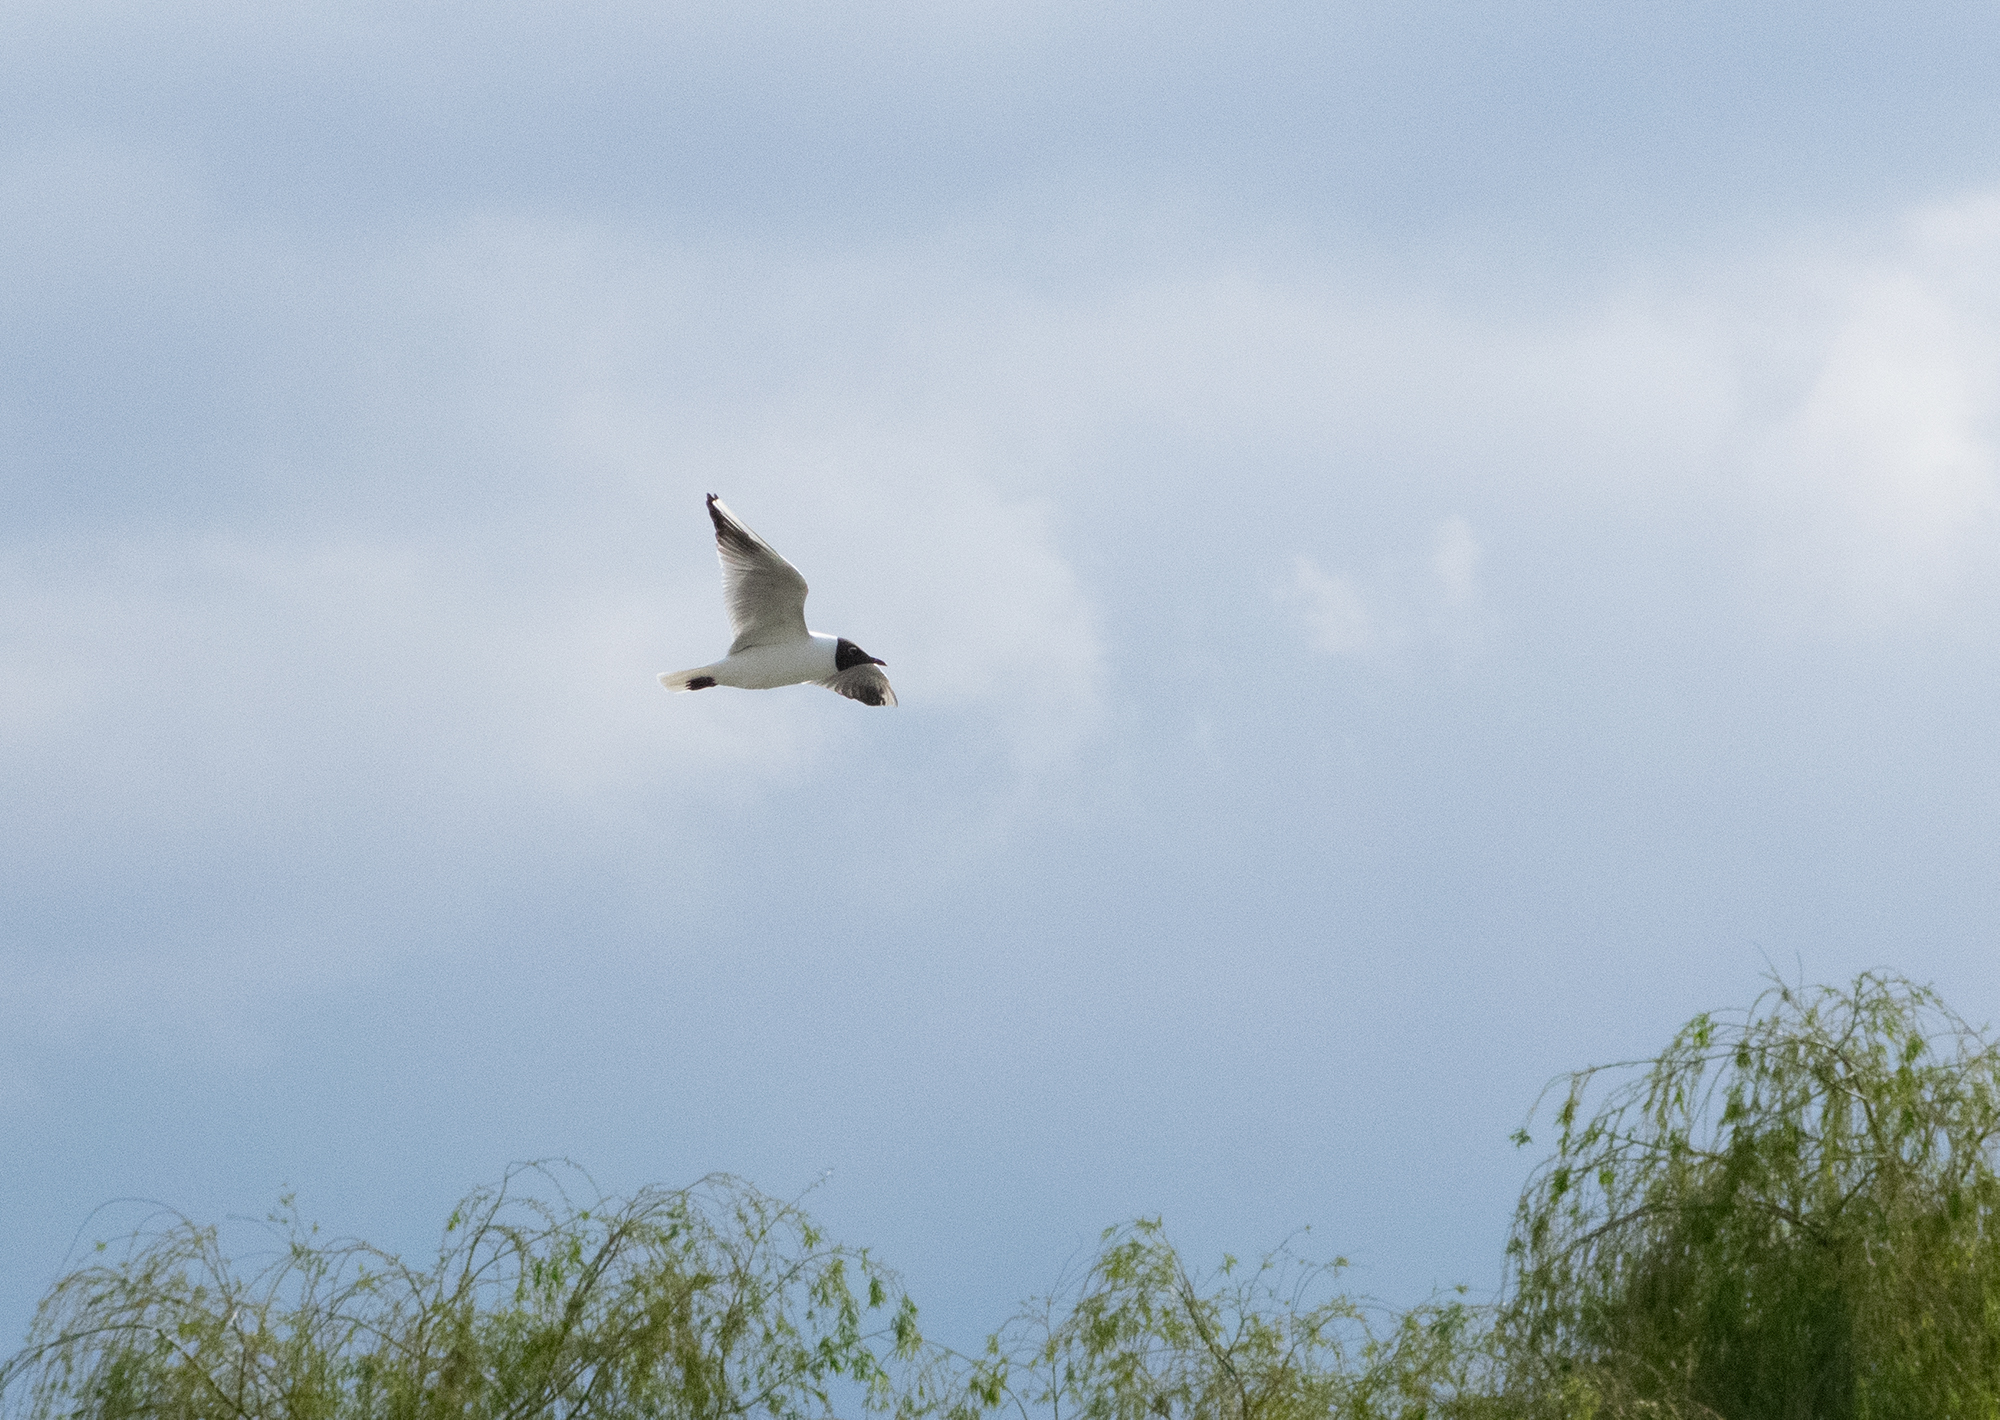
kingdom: Animalia
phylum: Chordata
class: Aves
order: Charadriiformes
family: Laridae
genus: Chroicocephalus
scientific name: Chroicocephalus ridibundus
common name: Black-headed gull
